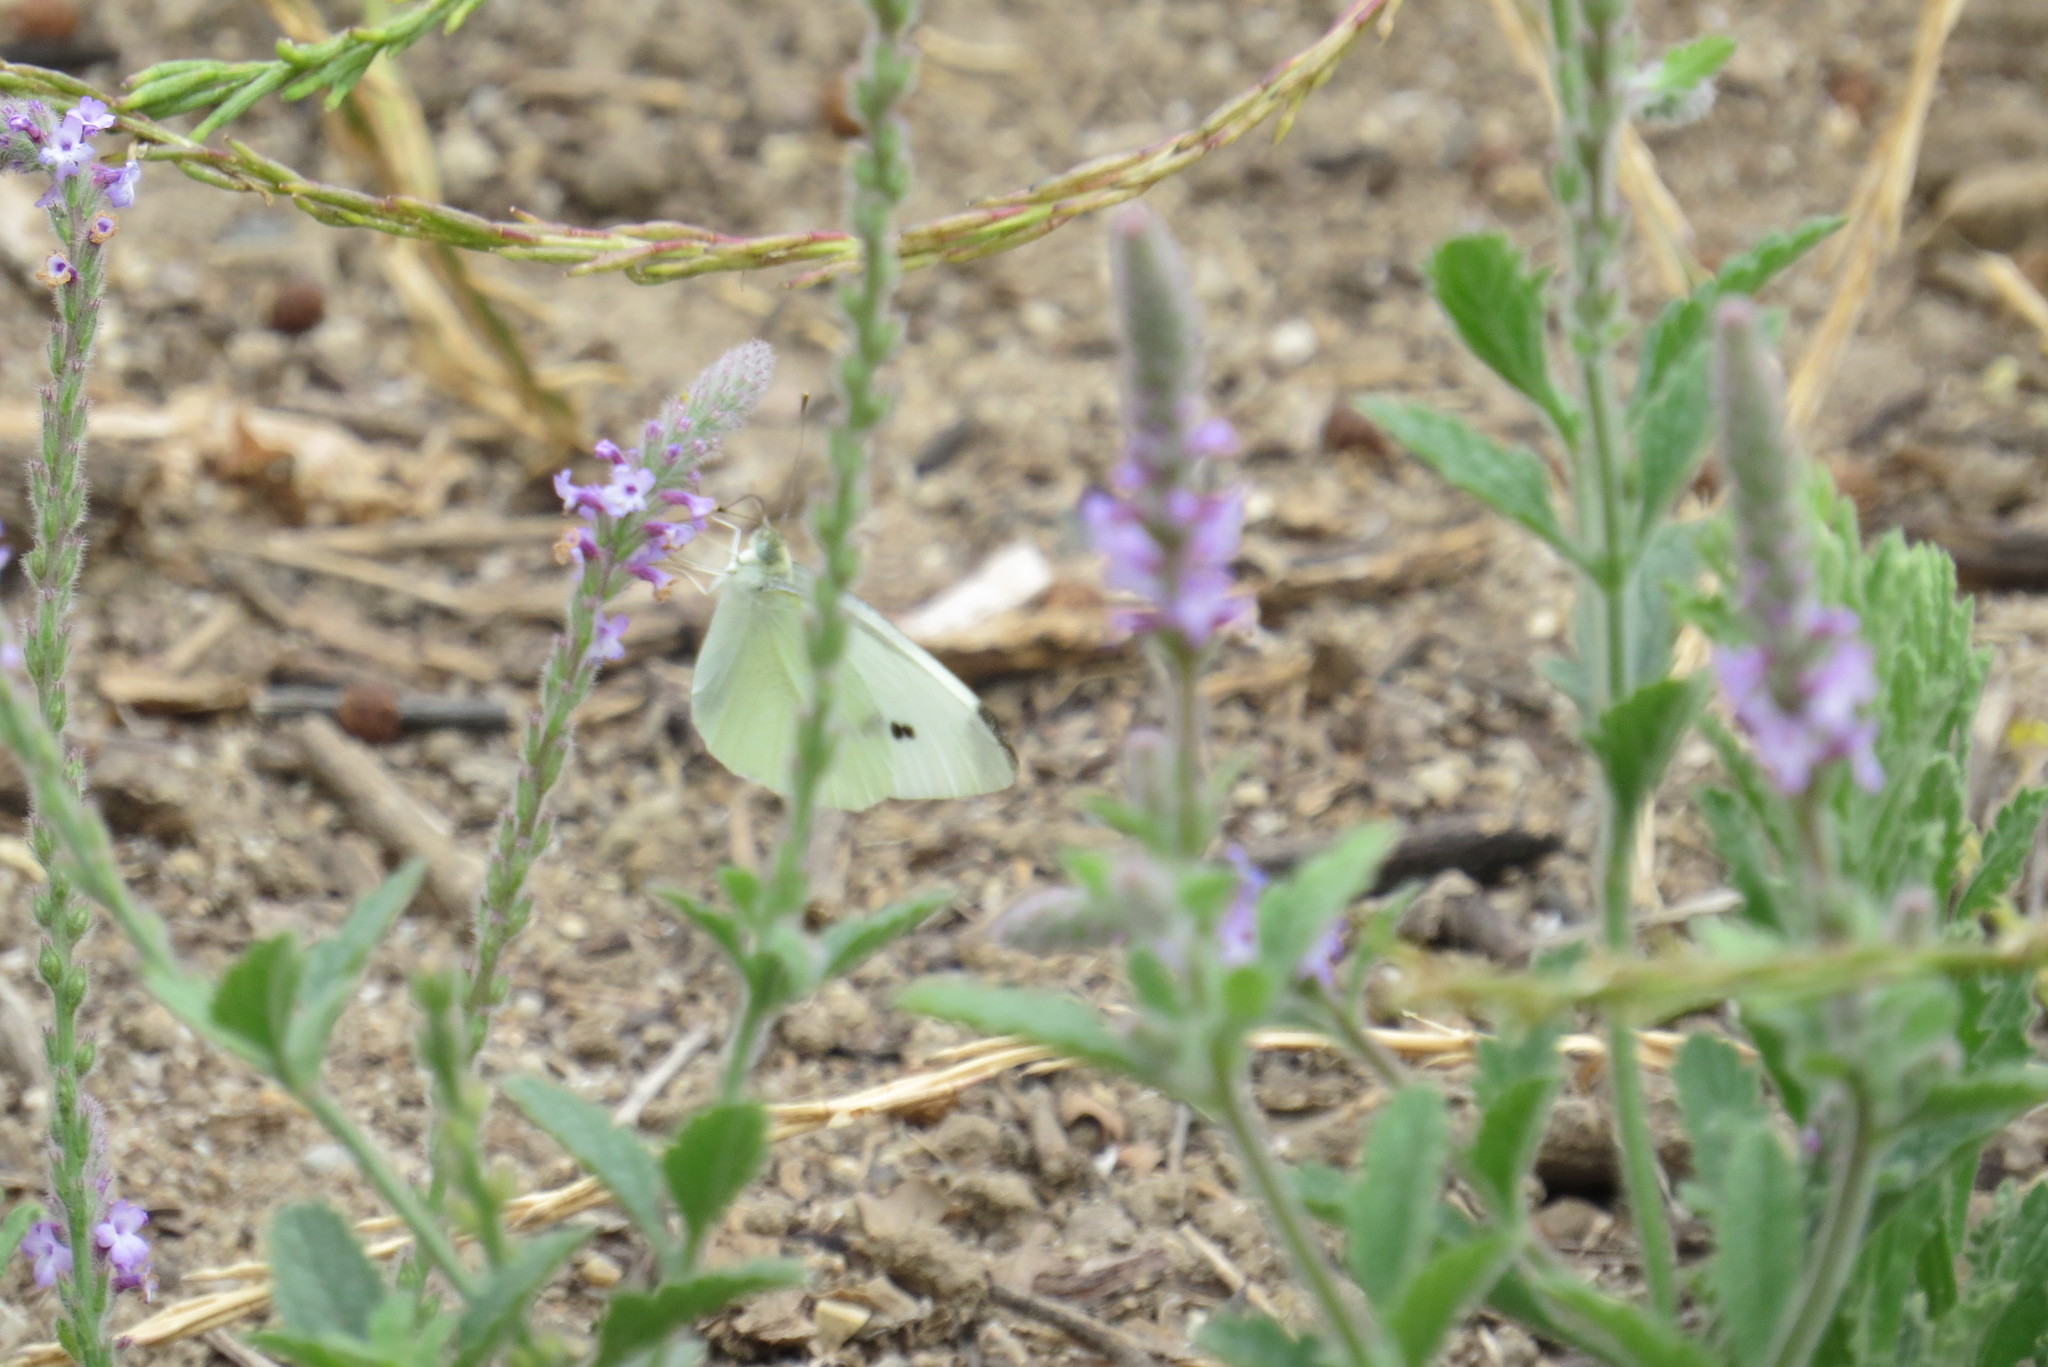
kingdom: Animalia
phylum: Arthropoda
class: Insecta
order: Lepidoptera
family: Pieridae
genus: Pieris
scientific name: Pieris rapae
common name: Small white
